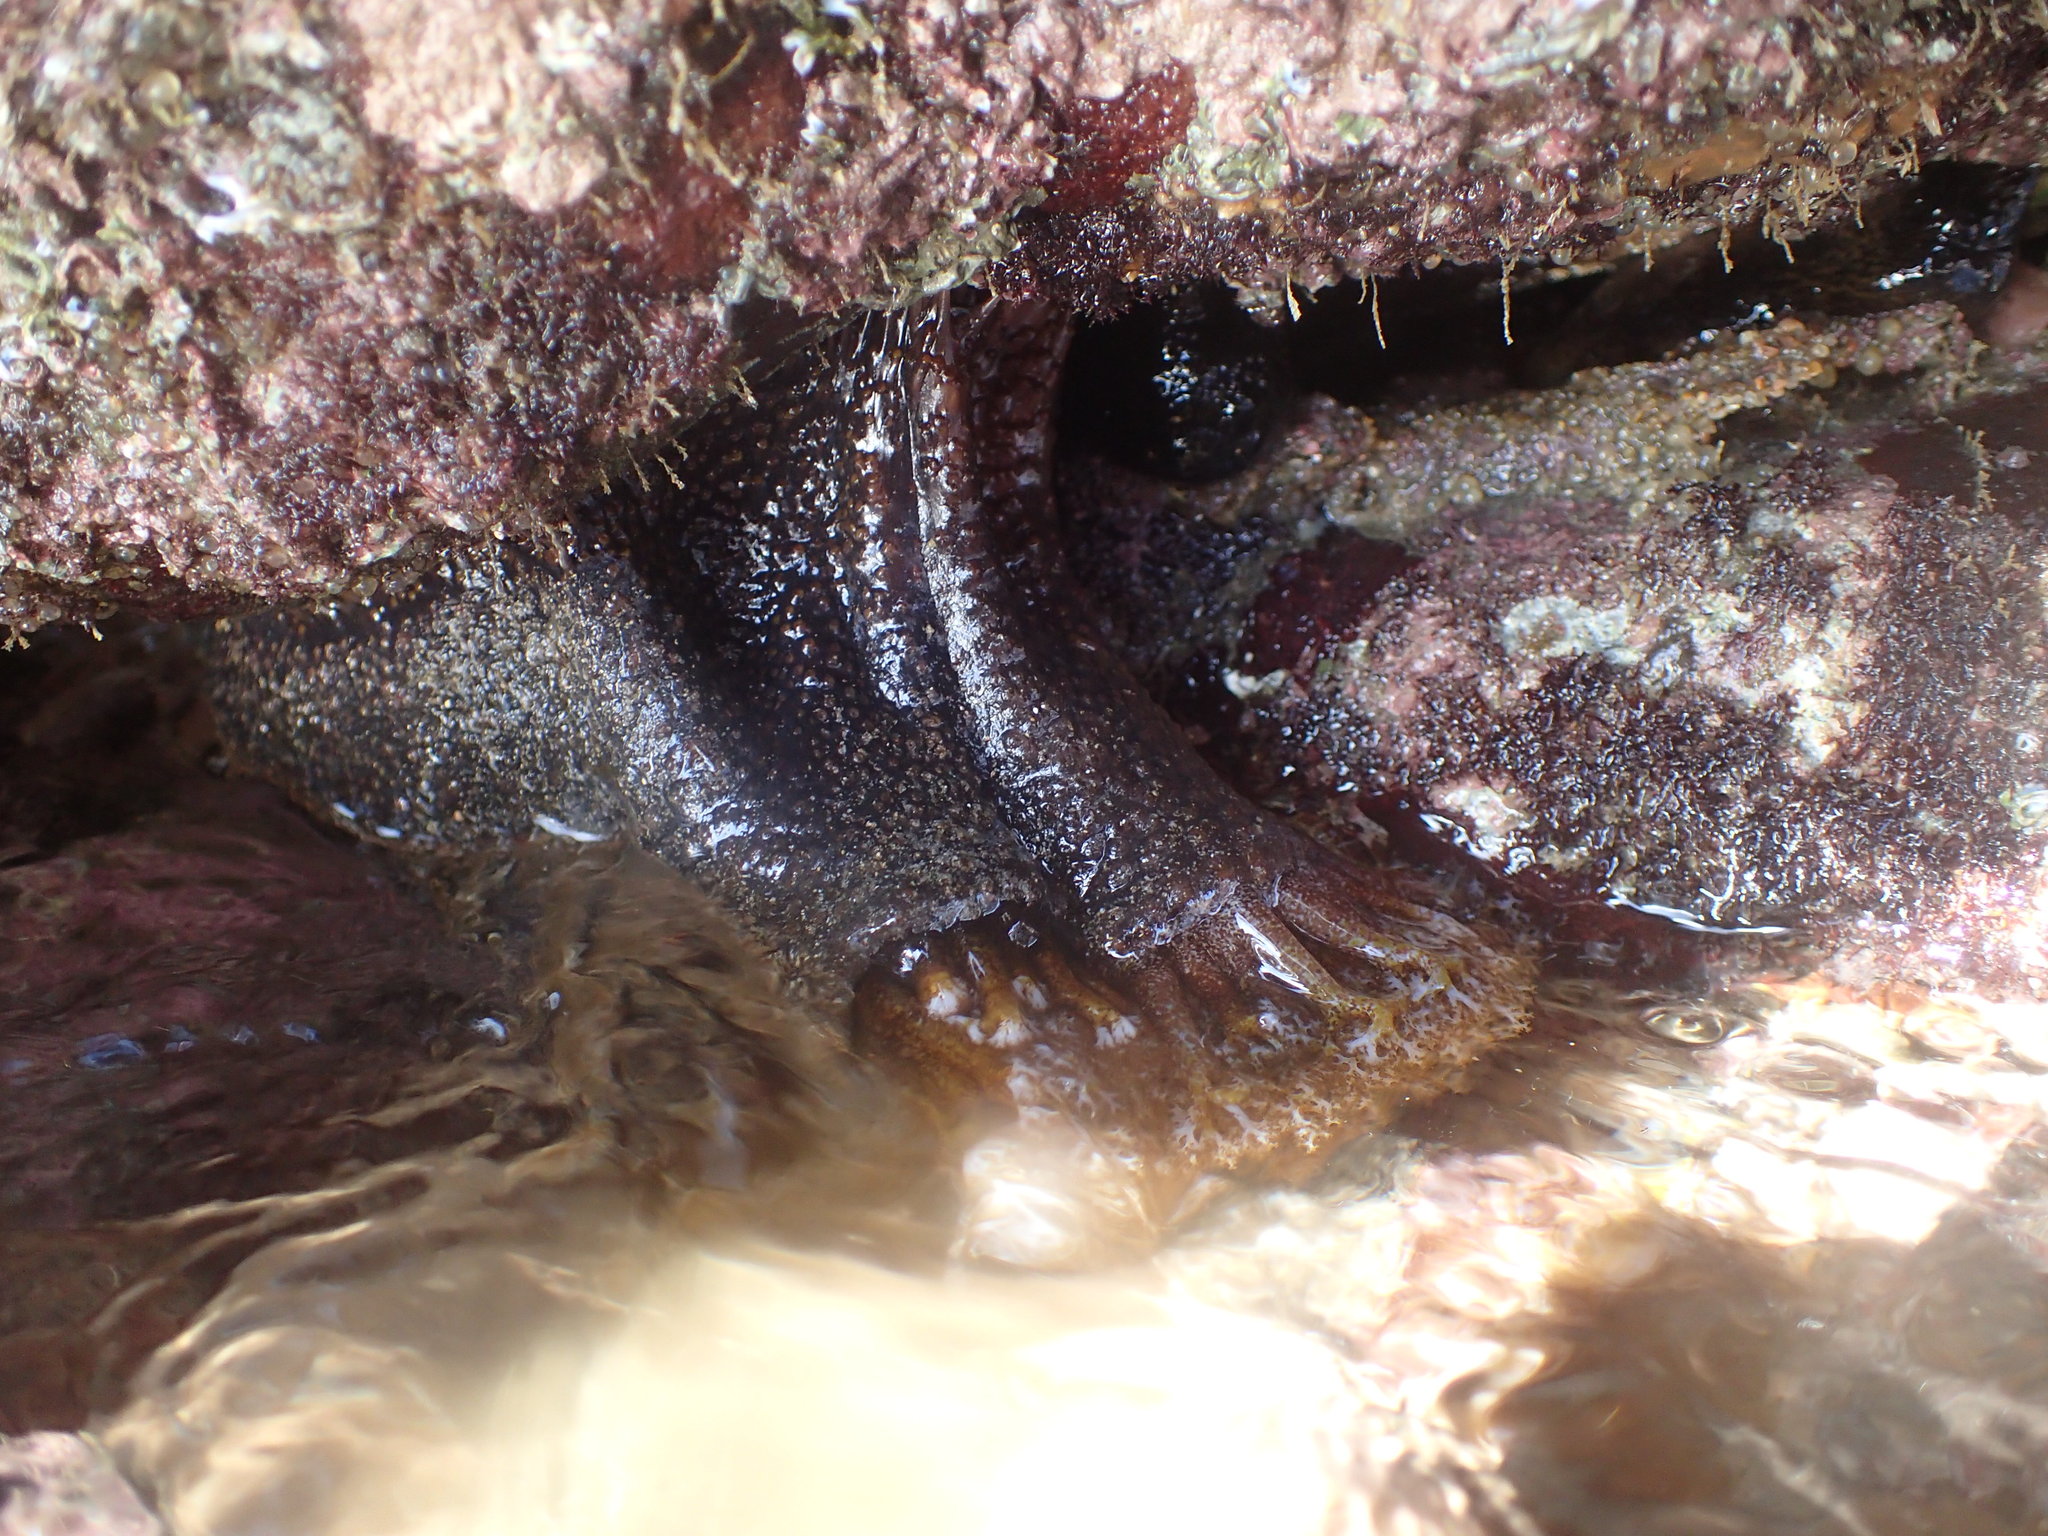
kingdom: Animalia
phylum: Echinodermata
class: Holothuroidea
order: Holothuriida
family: Holothuriidae
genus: Holothuria
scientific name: Holothuria cinerascens
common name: Ashy sea cucumber
